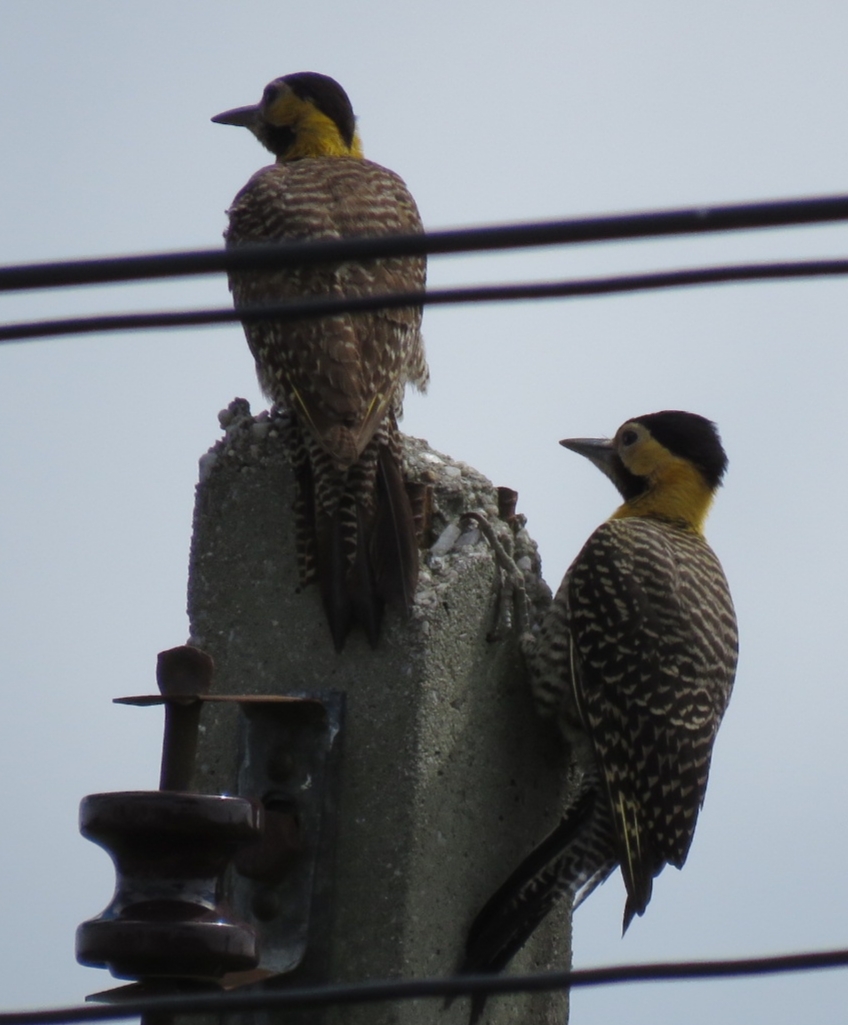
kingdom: Animalia
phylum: Chordata
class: Aves
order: Piciformes
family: Picidae
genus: Colaptes
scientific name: Colaptes campestris
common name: Campo flicker
